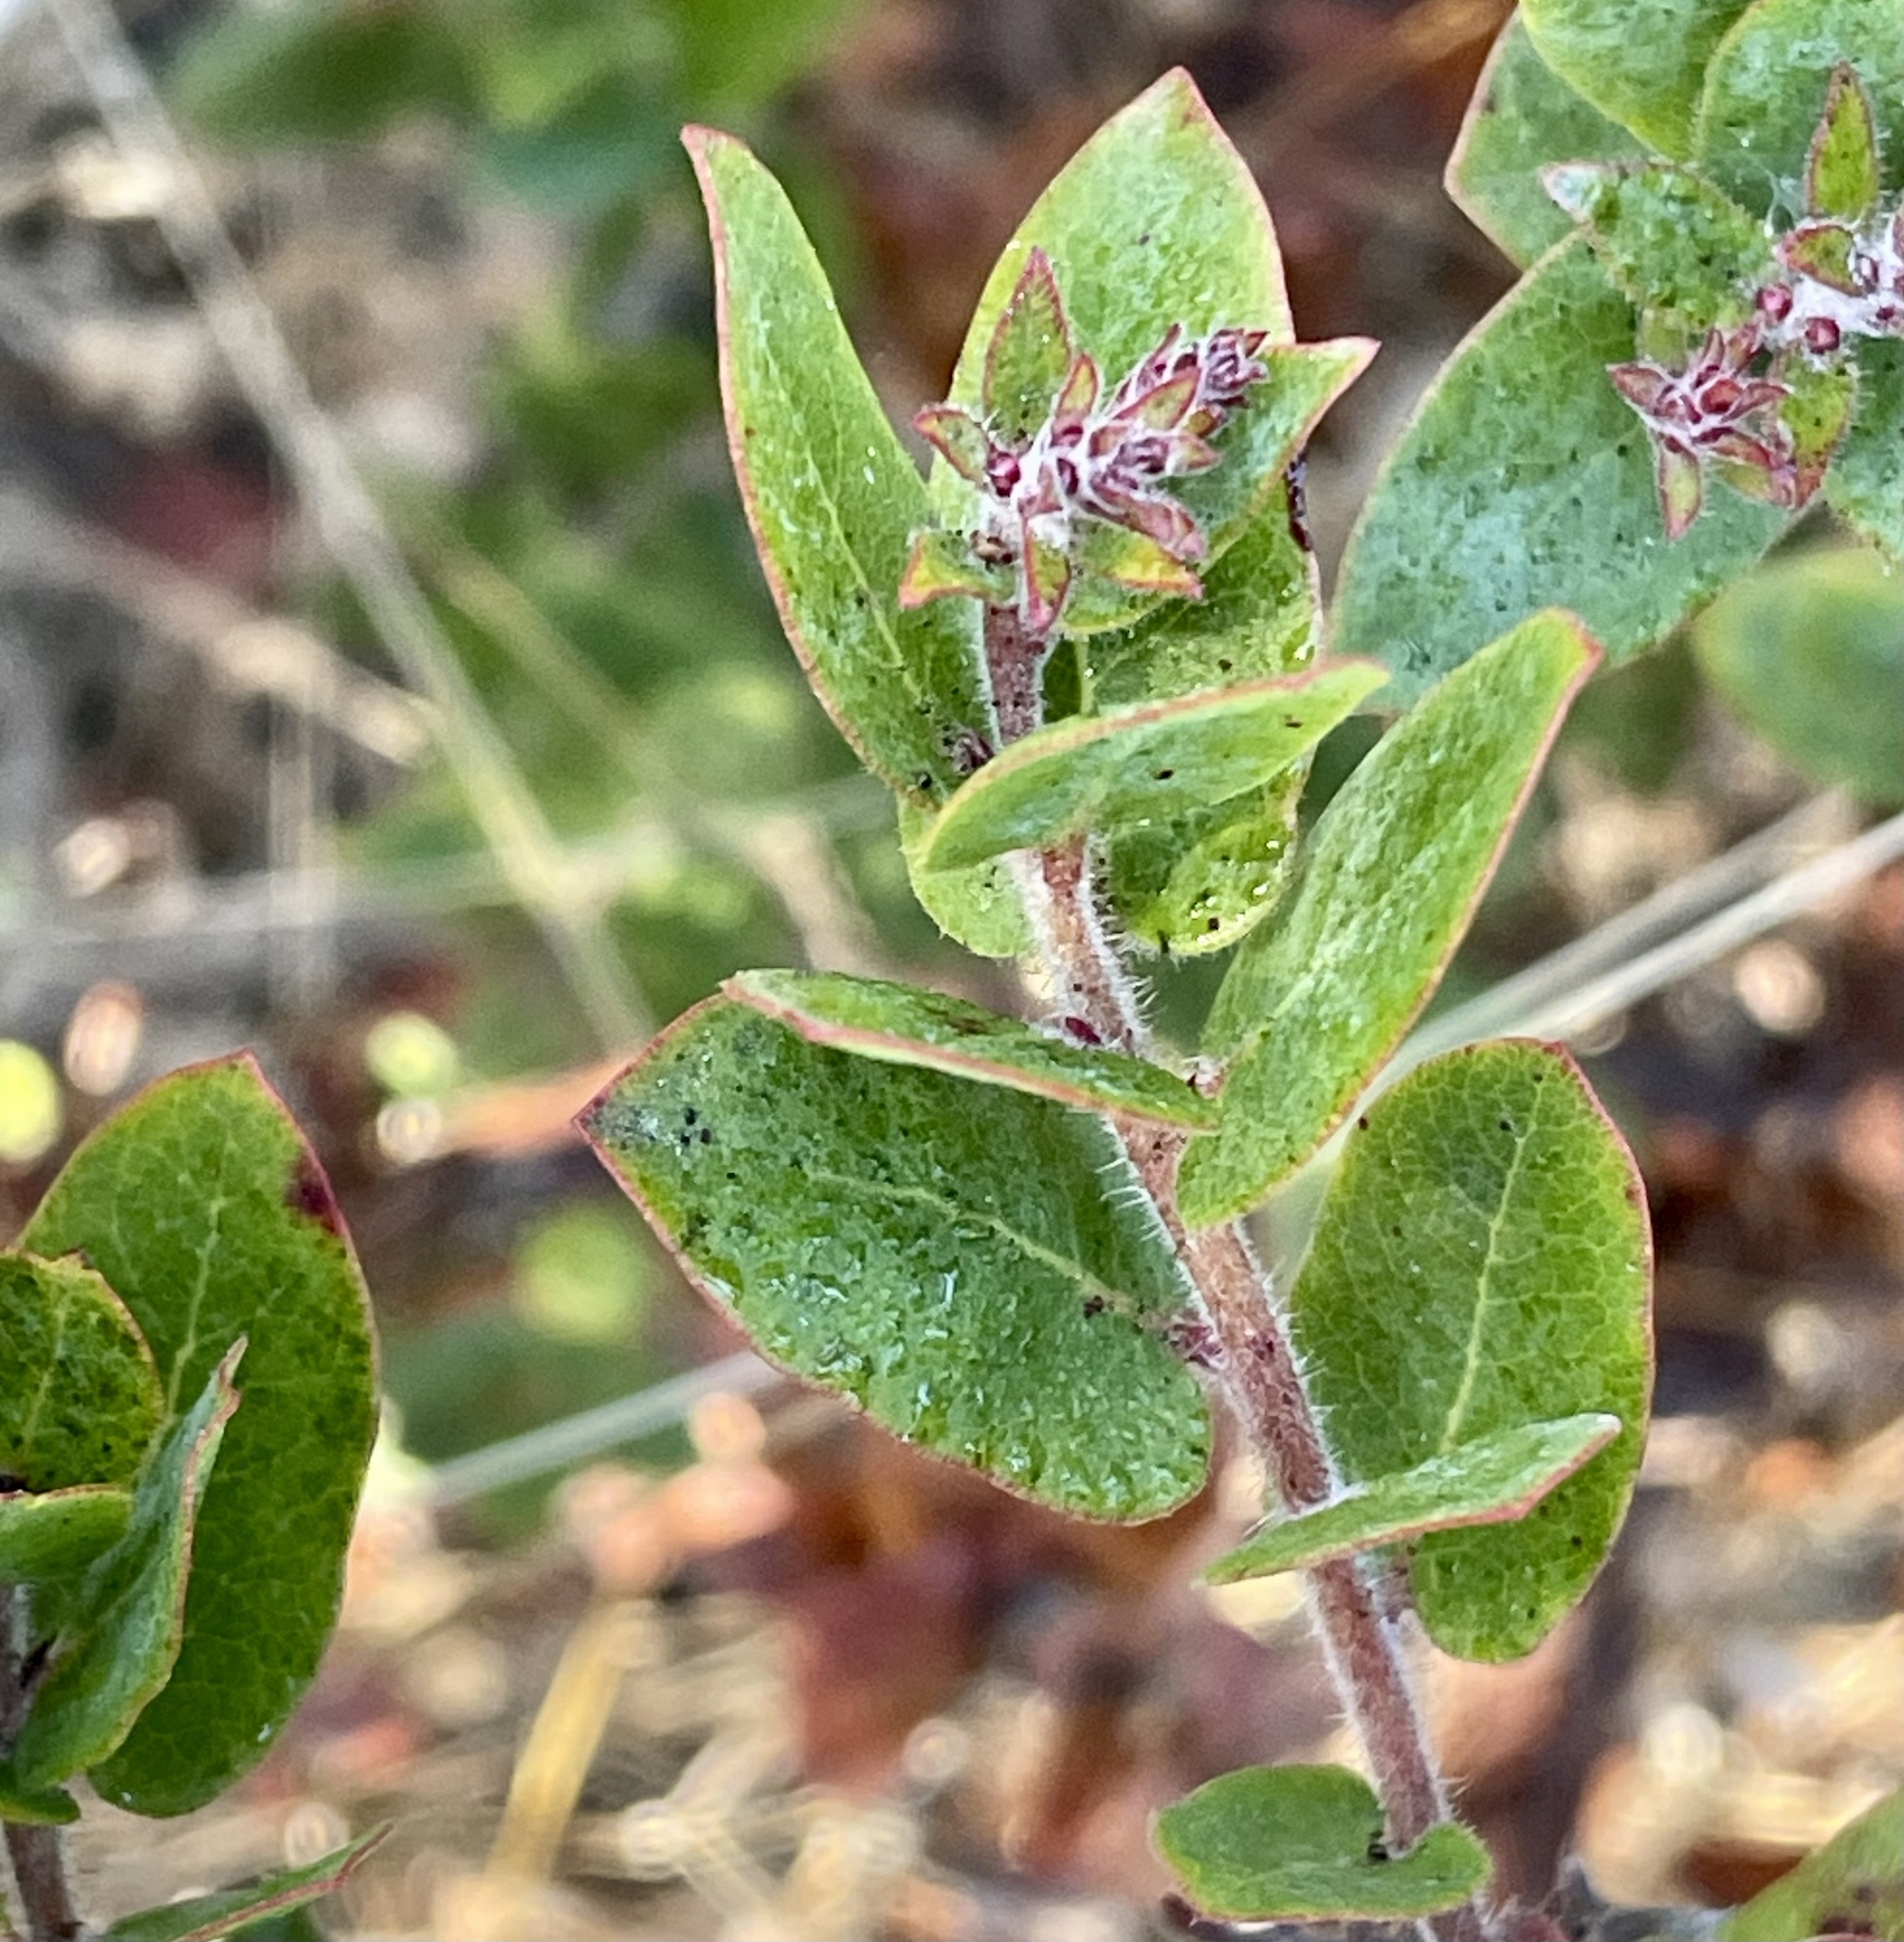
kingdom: Plantae
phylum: Tracheophyta
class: Magnoliopsida
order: Ericales
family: Ericaceae
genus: Arctostaphylos
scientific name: Arctostaphylos pajaroensis
